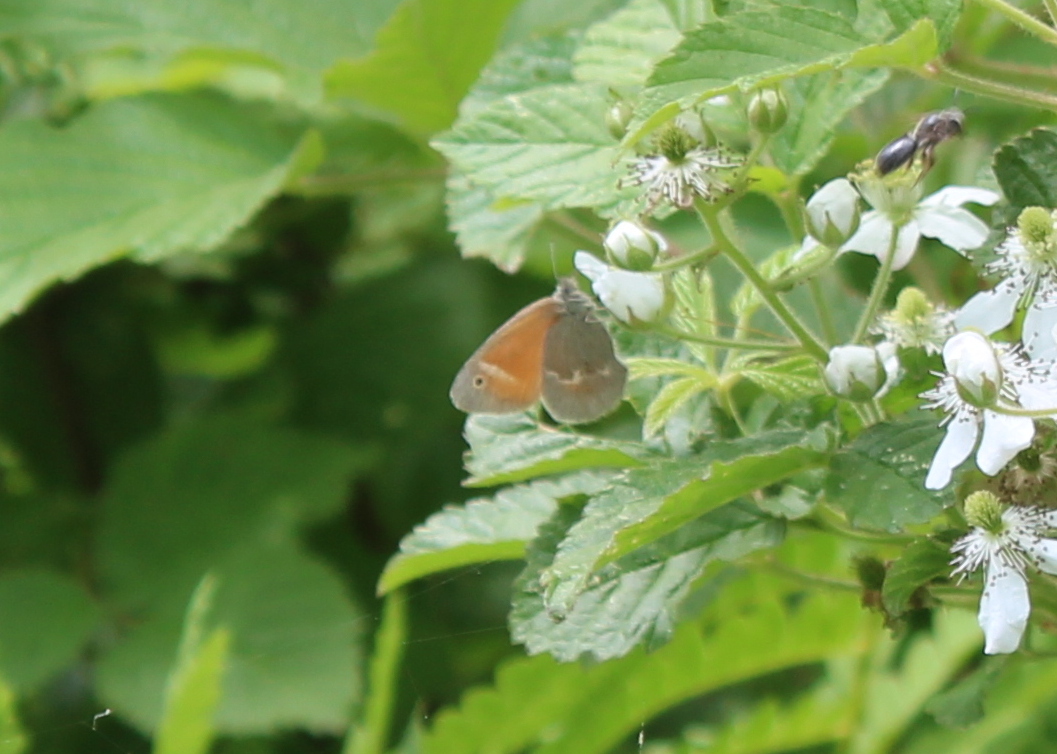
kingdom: Animalia
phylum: Arthropoda
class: Insecta
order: Lepidoptera
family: Nymphalidae
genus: Coenonympha
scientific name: Coenonympha california
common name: Common ringlet
